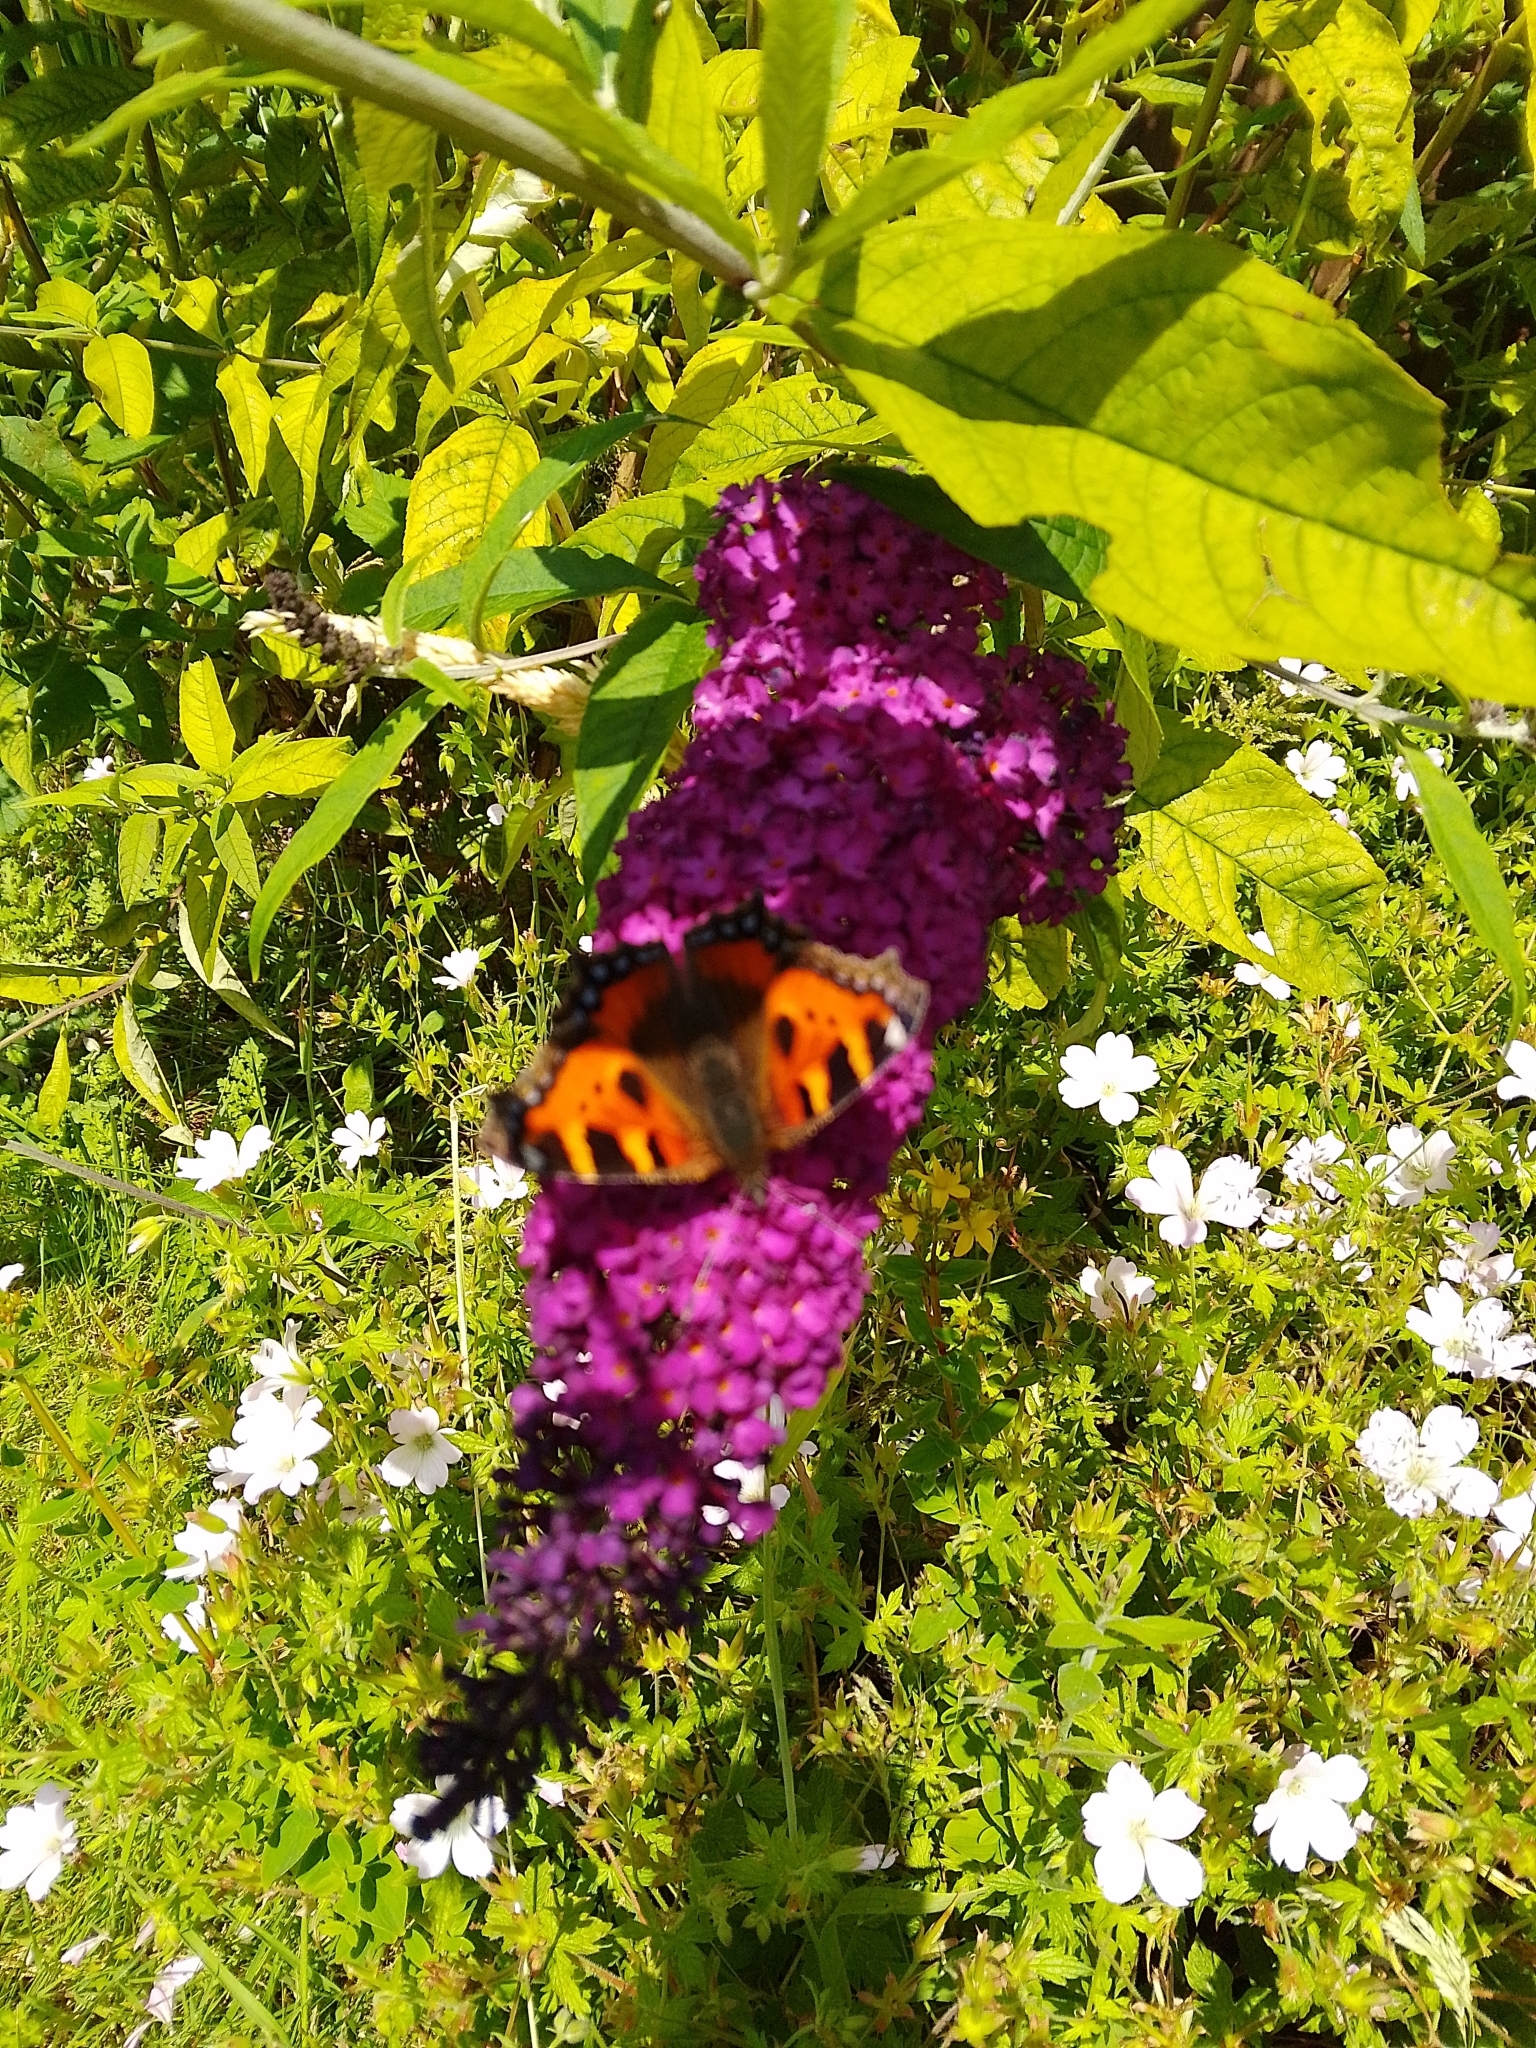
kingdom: Animalia
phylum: Arthropoda
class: Insecta
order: Lepidoptera
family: Nymphalidae
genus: Aglais
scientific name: Aglais urticae
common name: Small tortoiseshell
